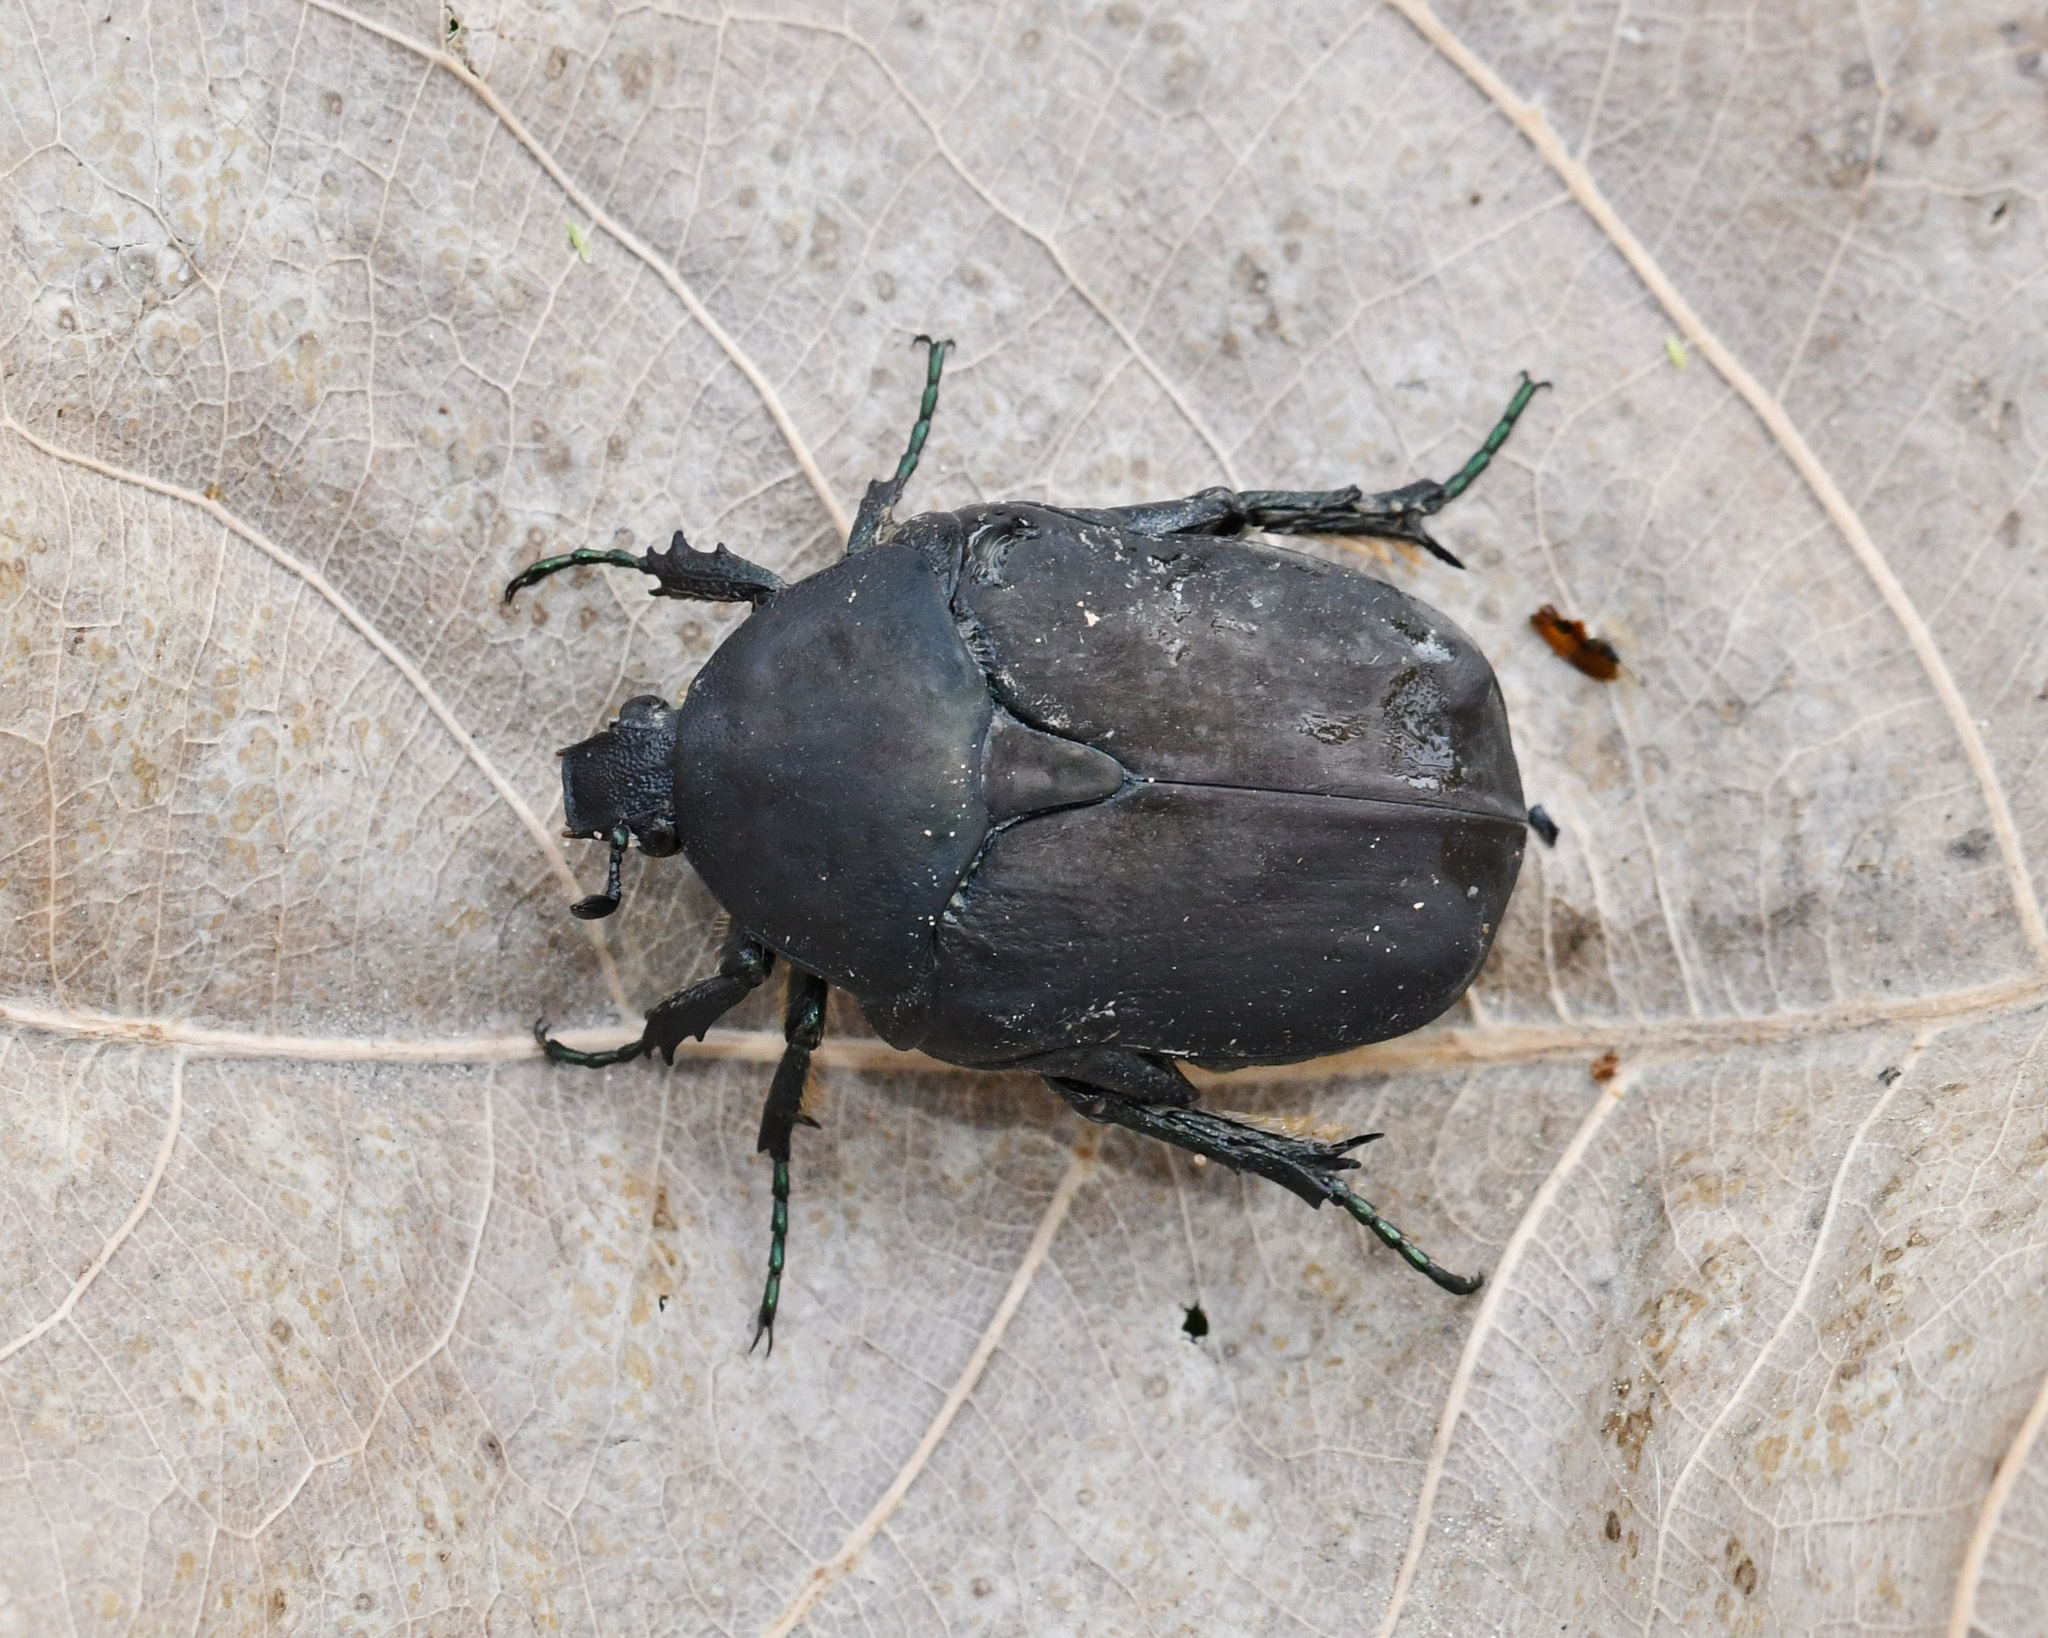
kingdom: Animalia
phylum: Arthropoda
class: Insecta
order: Coleoptera
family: Scarabaeidae
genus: Protaetia
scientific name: Protaetia afflicta
